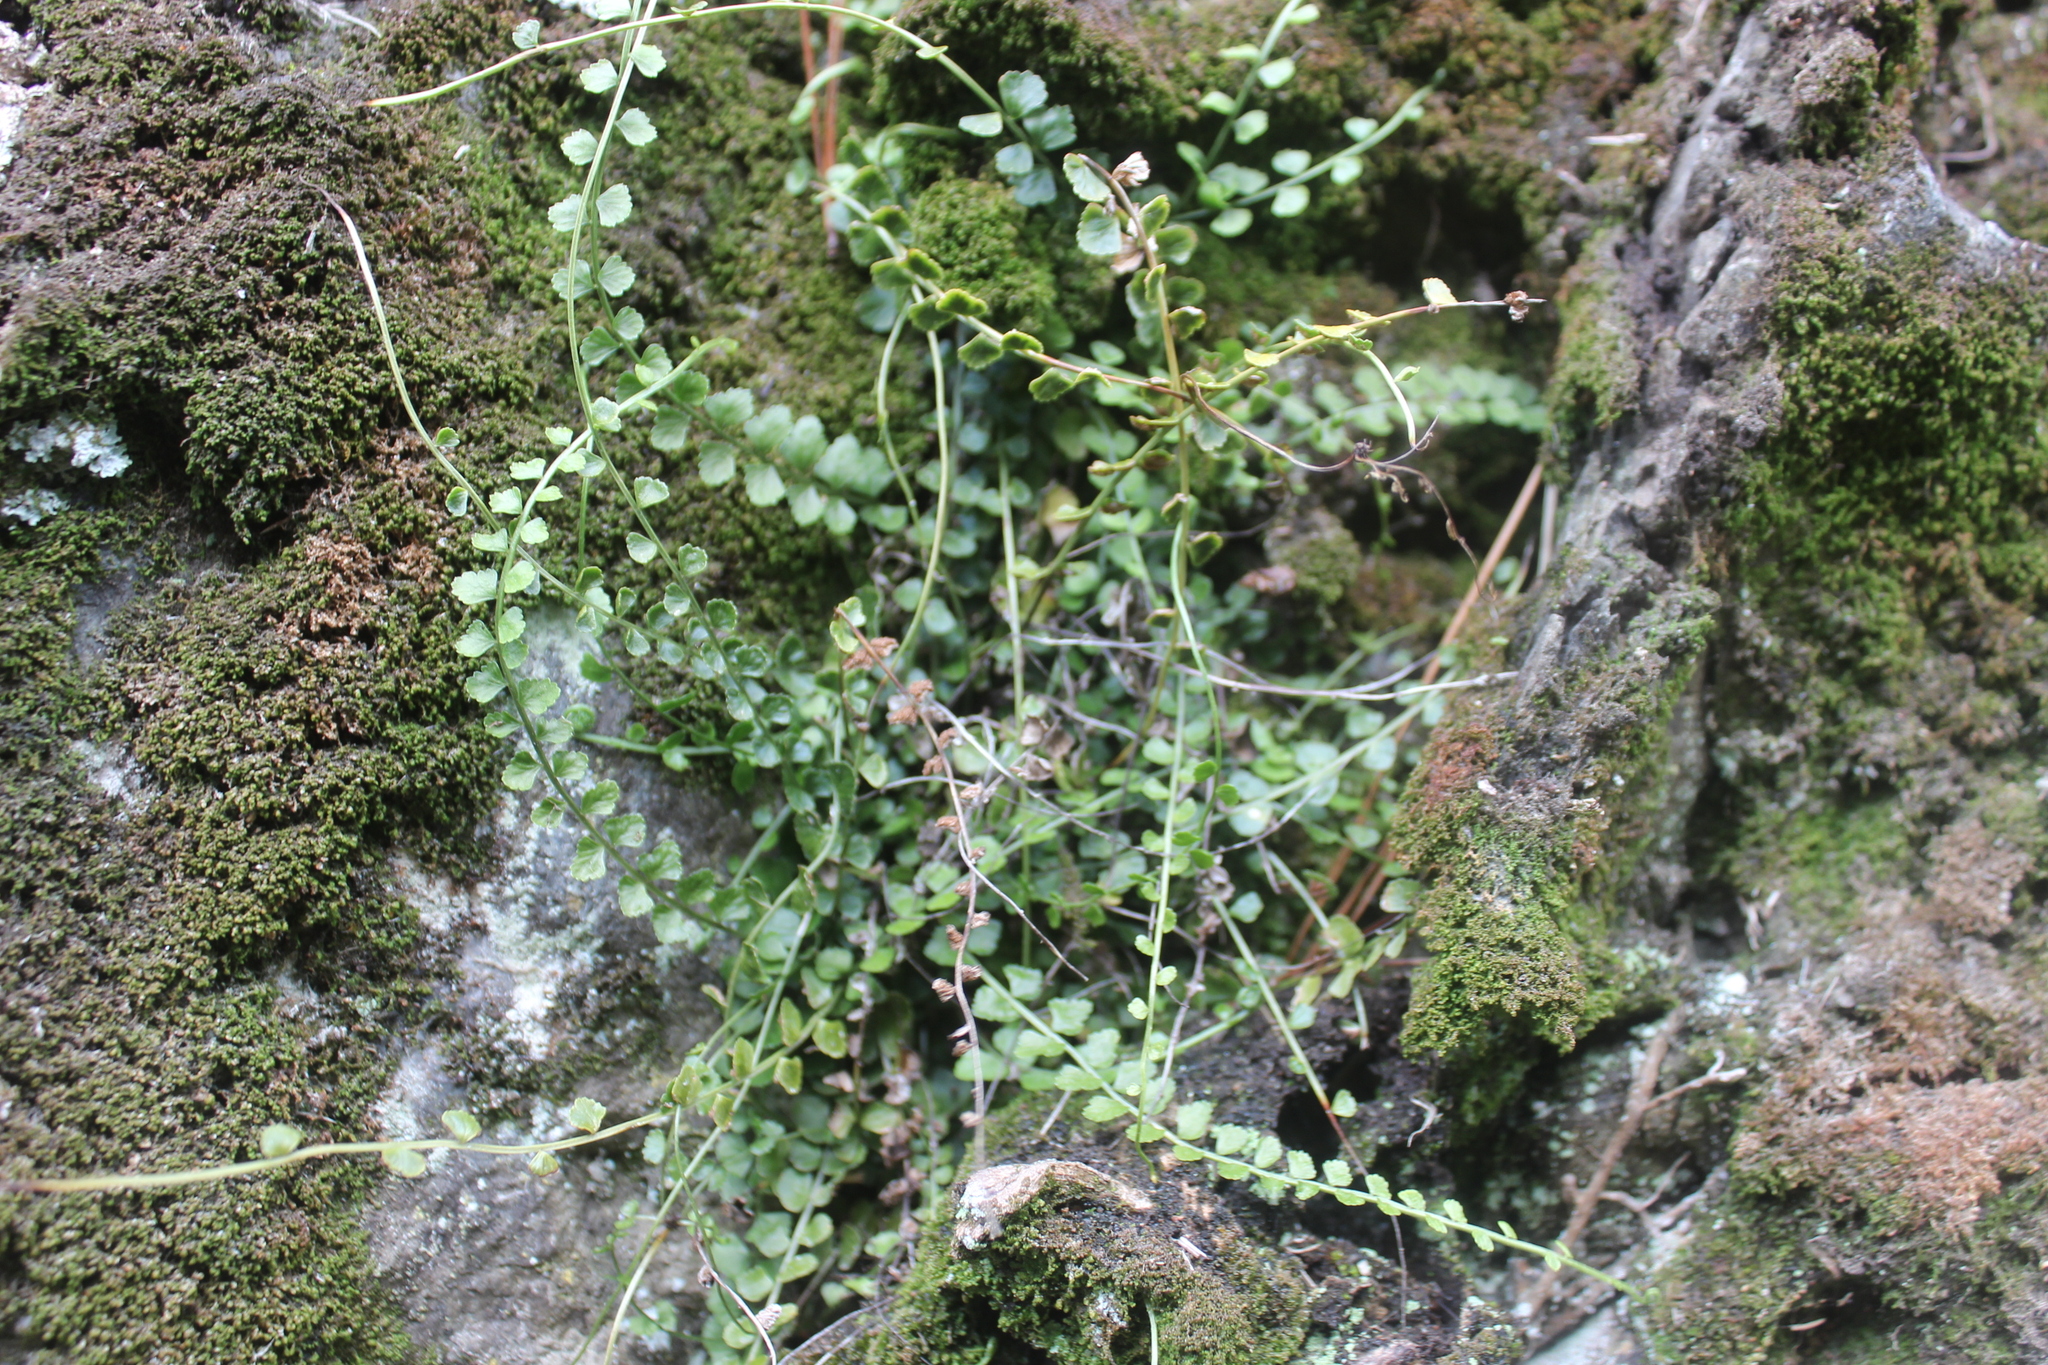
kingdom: Plantae
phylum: Tracheophyta
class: Polypodiopsida
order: Polypodiales
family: Aspleniaceae
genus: Asplenium
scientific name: Asplenium flabellifolium
